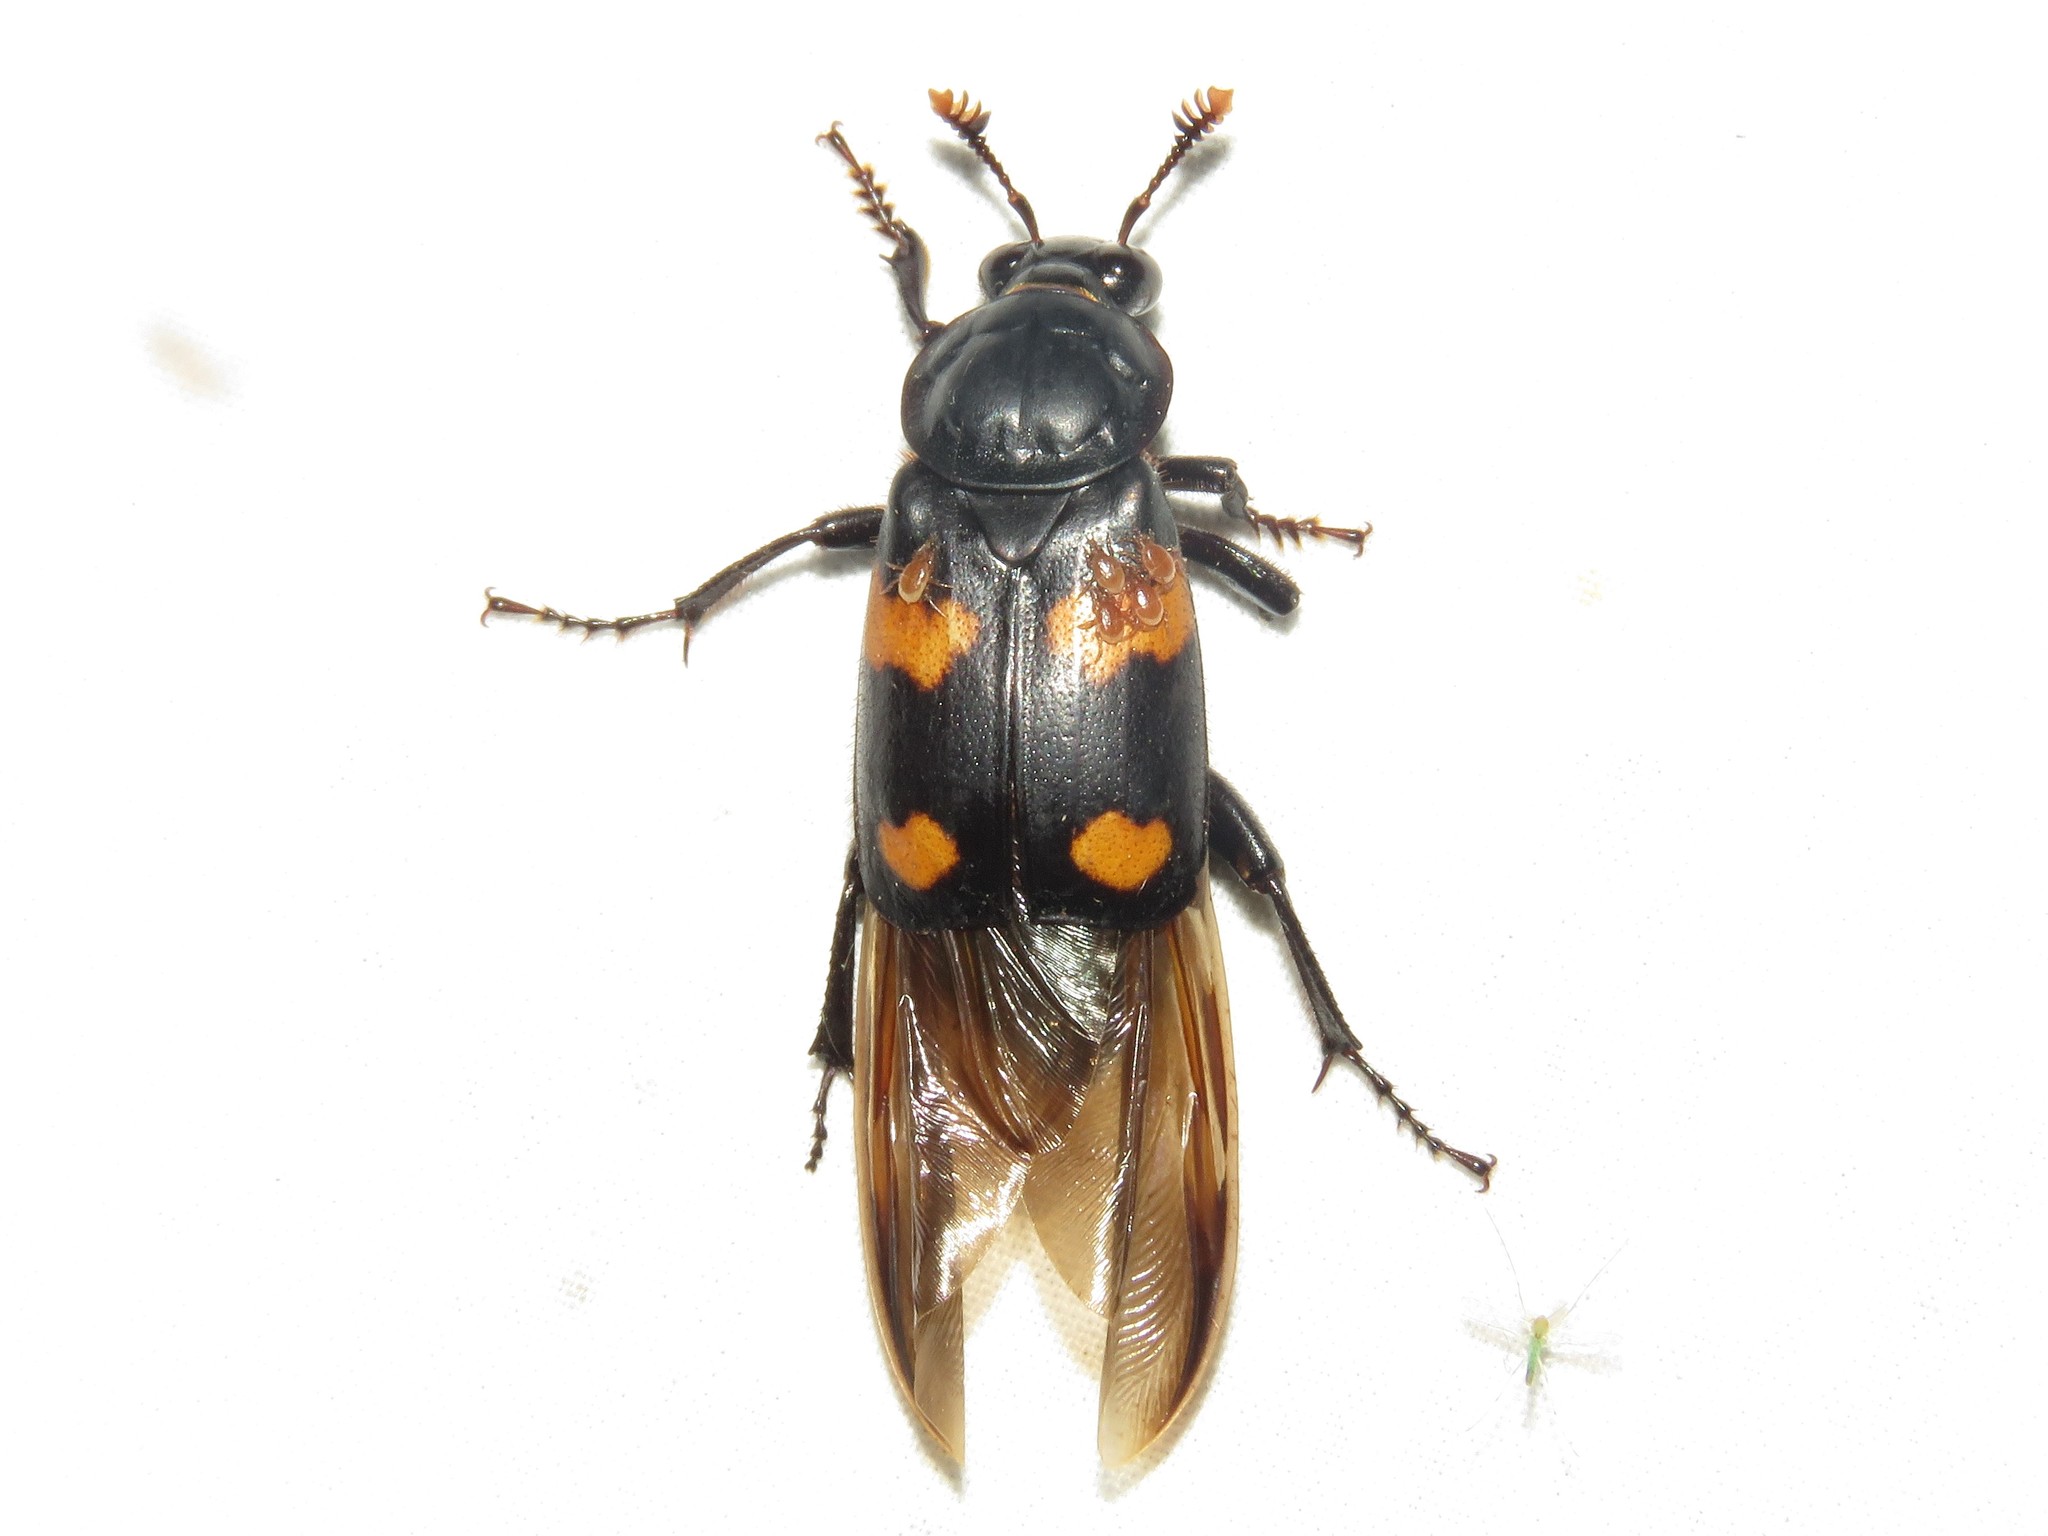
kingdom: Animalia
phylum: Arthropoda
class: Insecta
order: Coleoptera
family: Staphylinidae
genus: Nicrophorus
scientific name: Nicrophorus orbicollis
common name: Roundneck sexton beetle
